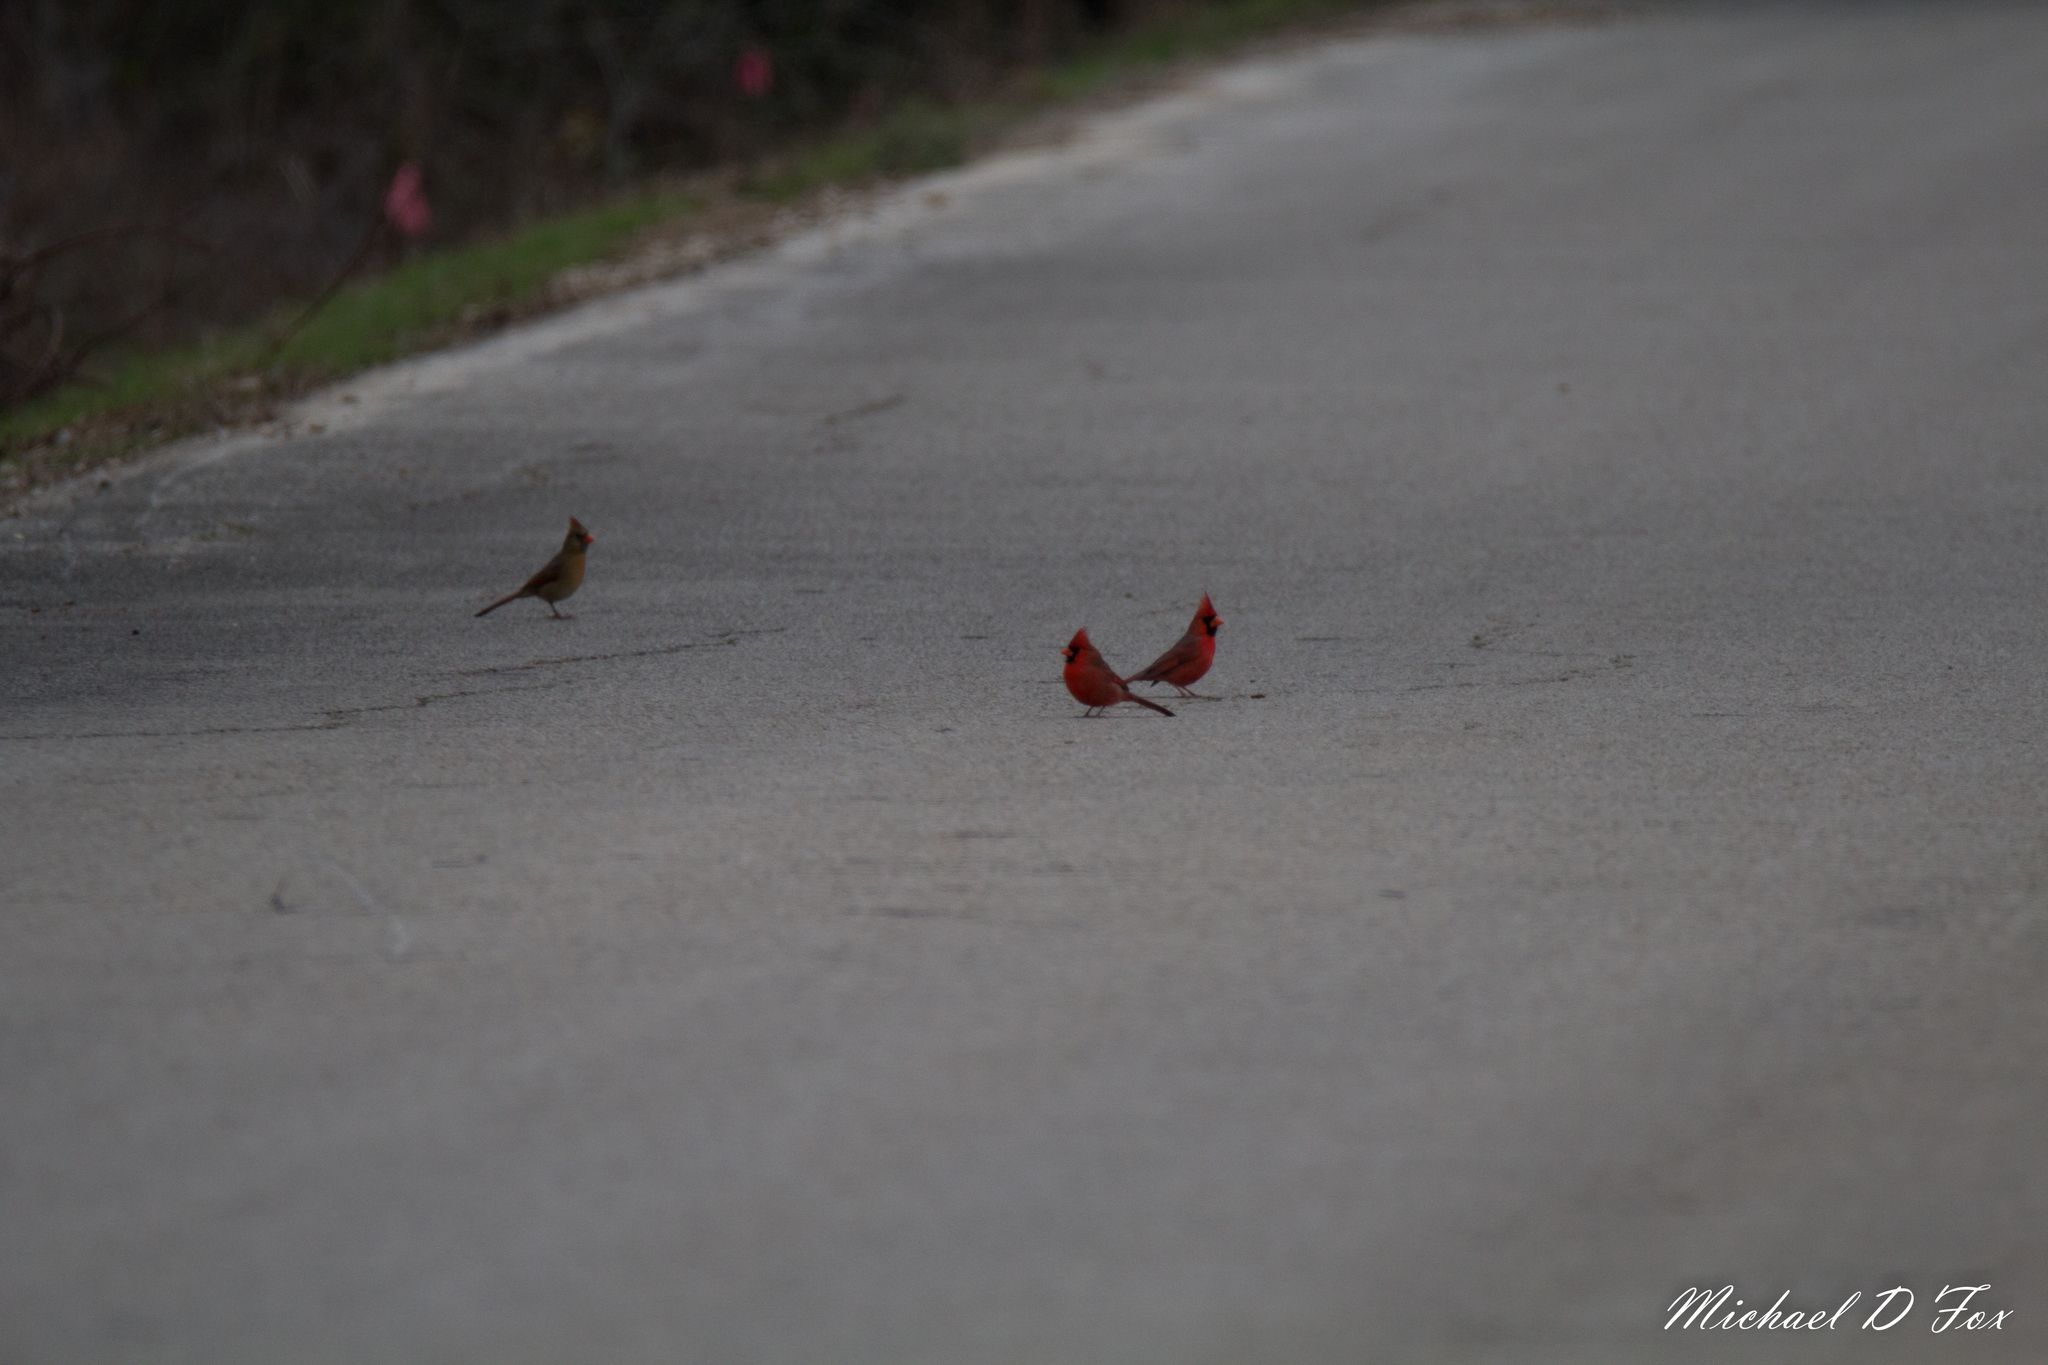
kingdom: Animalia
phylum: Chordata
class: Aves
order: Passeriformes
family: Cardinalidae
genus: Cardinalis
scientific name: Cardinalis cardinalis
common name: Northern cardinal
